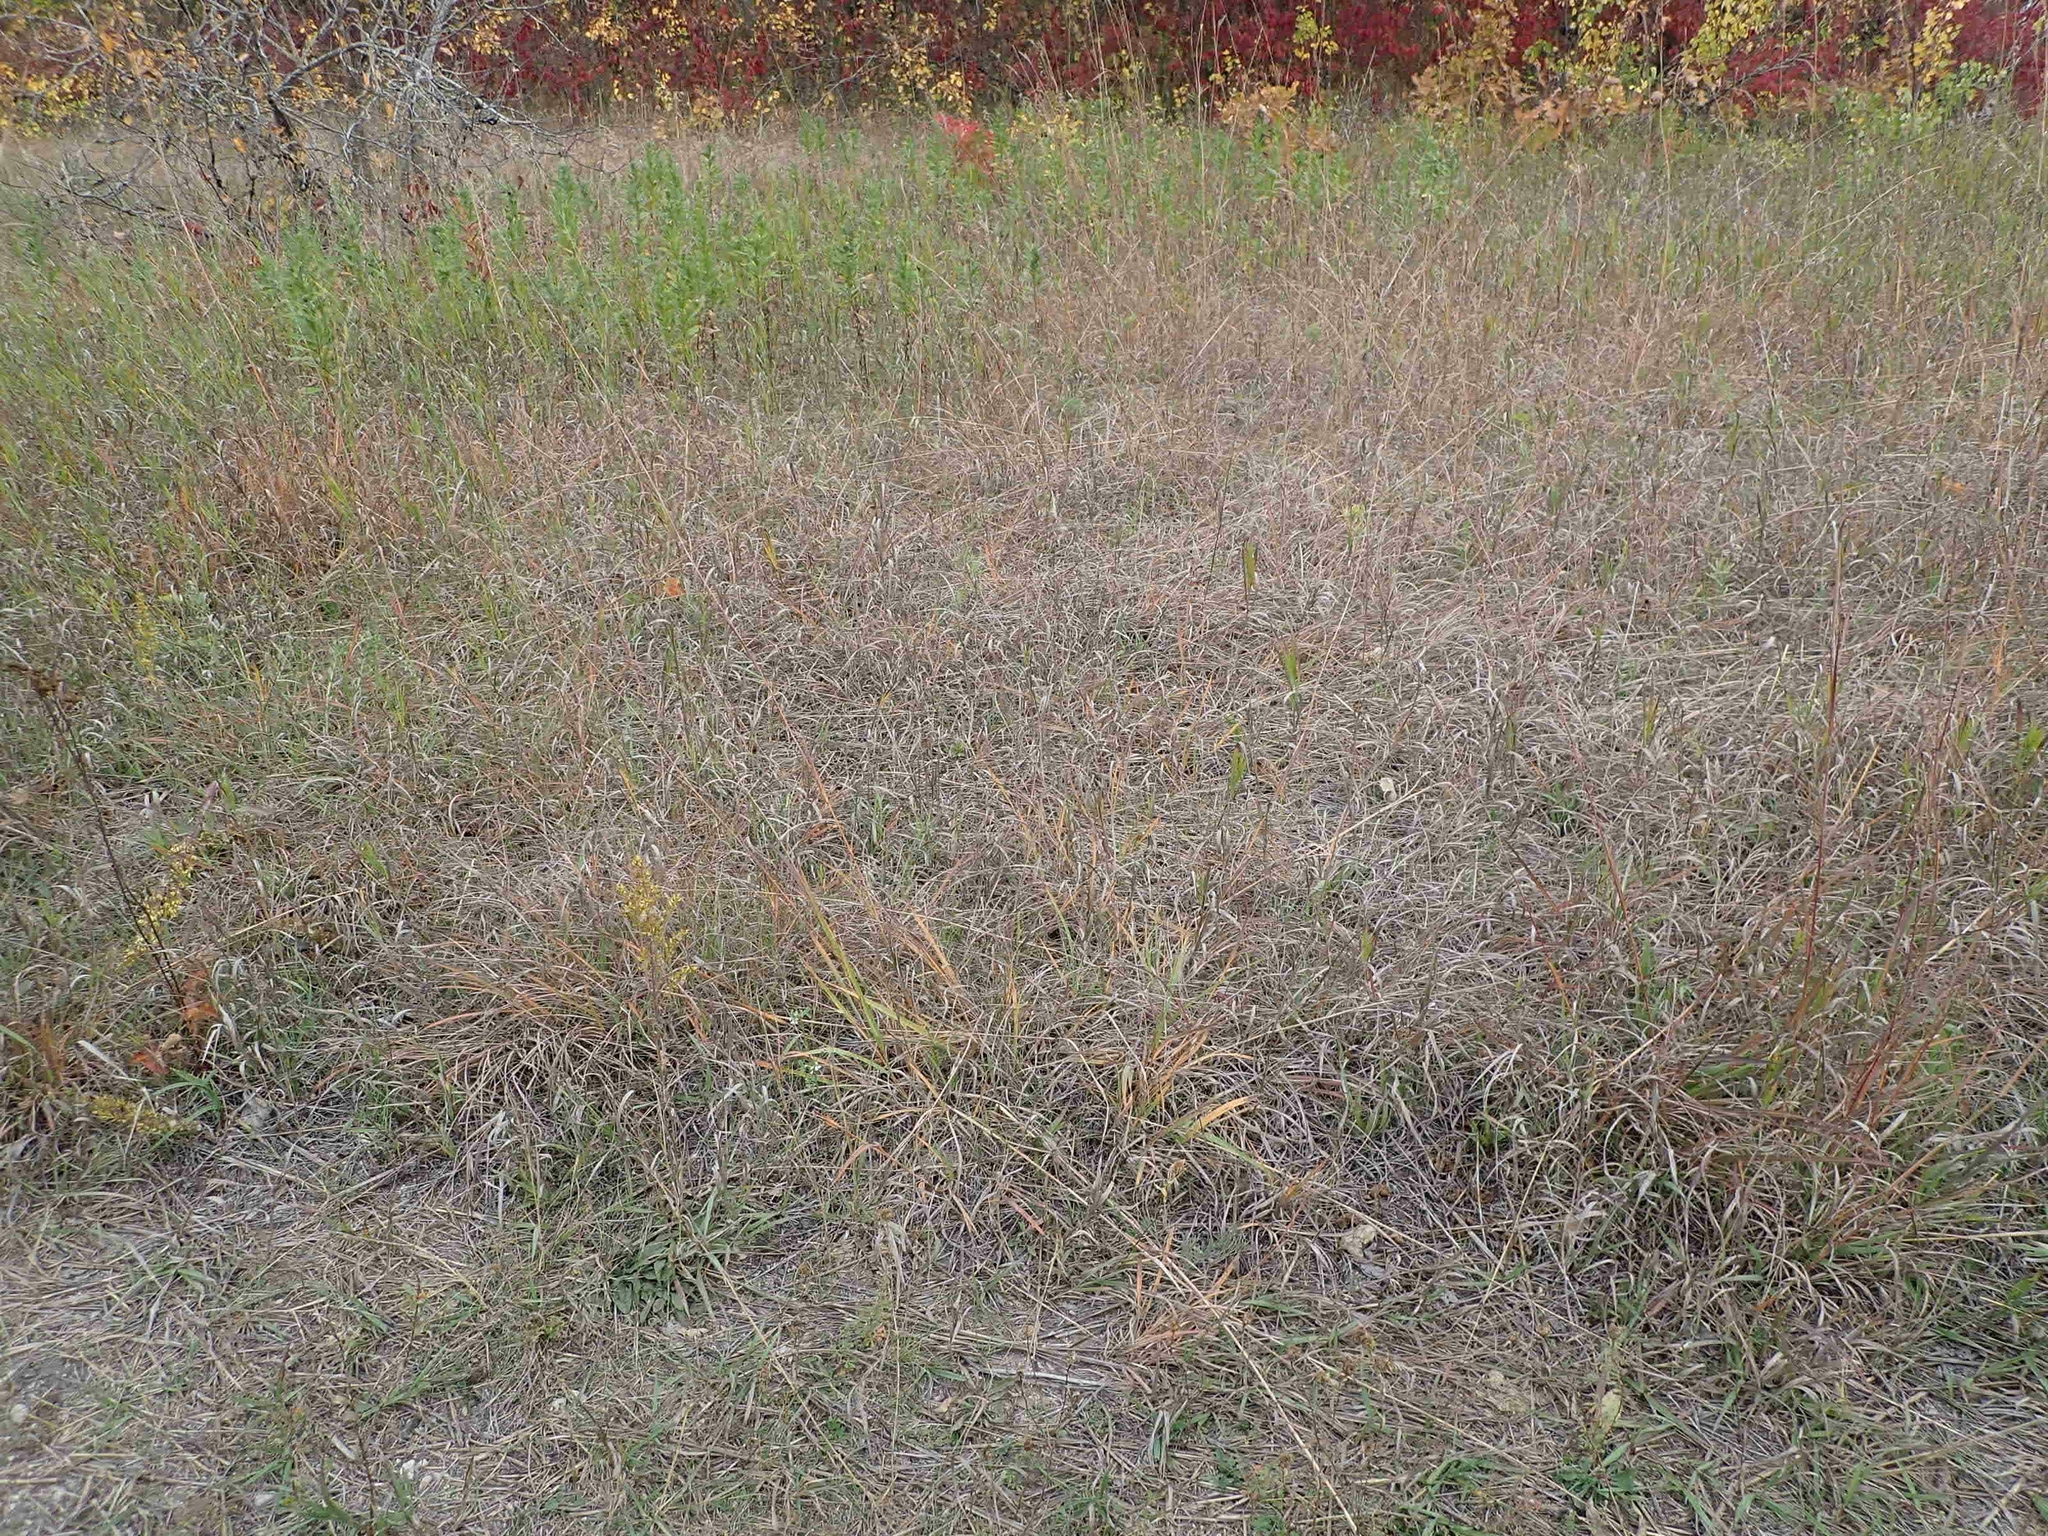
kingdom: Plantae
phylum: Tracheophyta
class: Liliopsida
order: Poales
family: Poaceae
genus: Andropogon
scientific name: Andropogon gerardi
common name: Big bluestem
